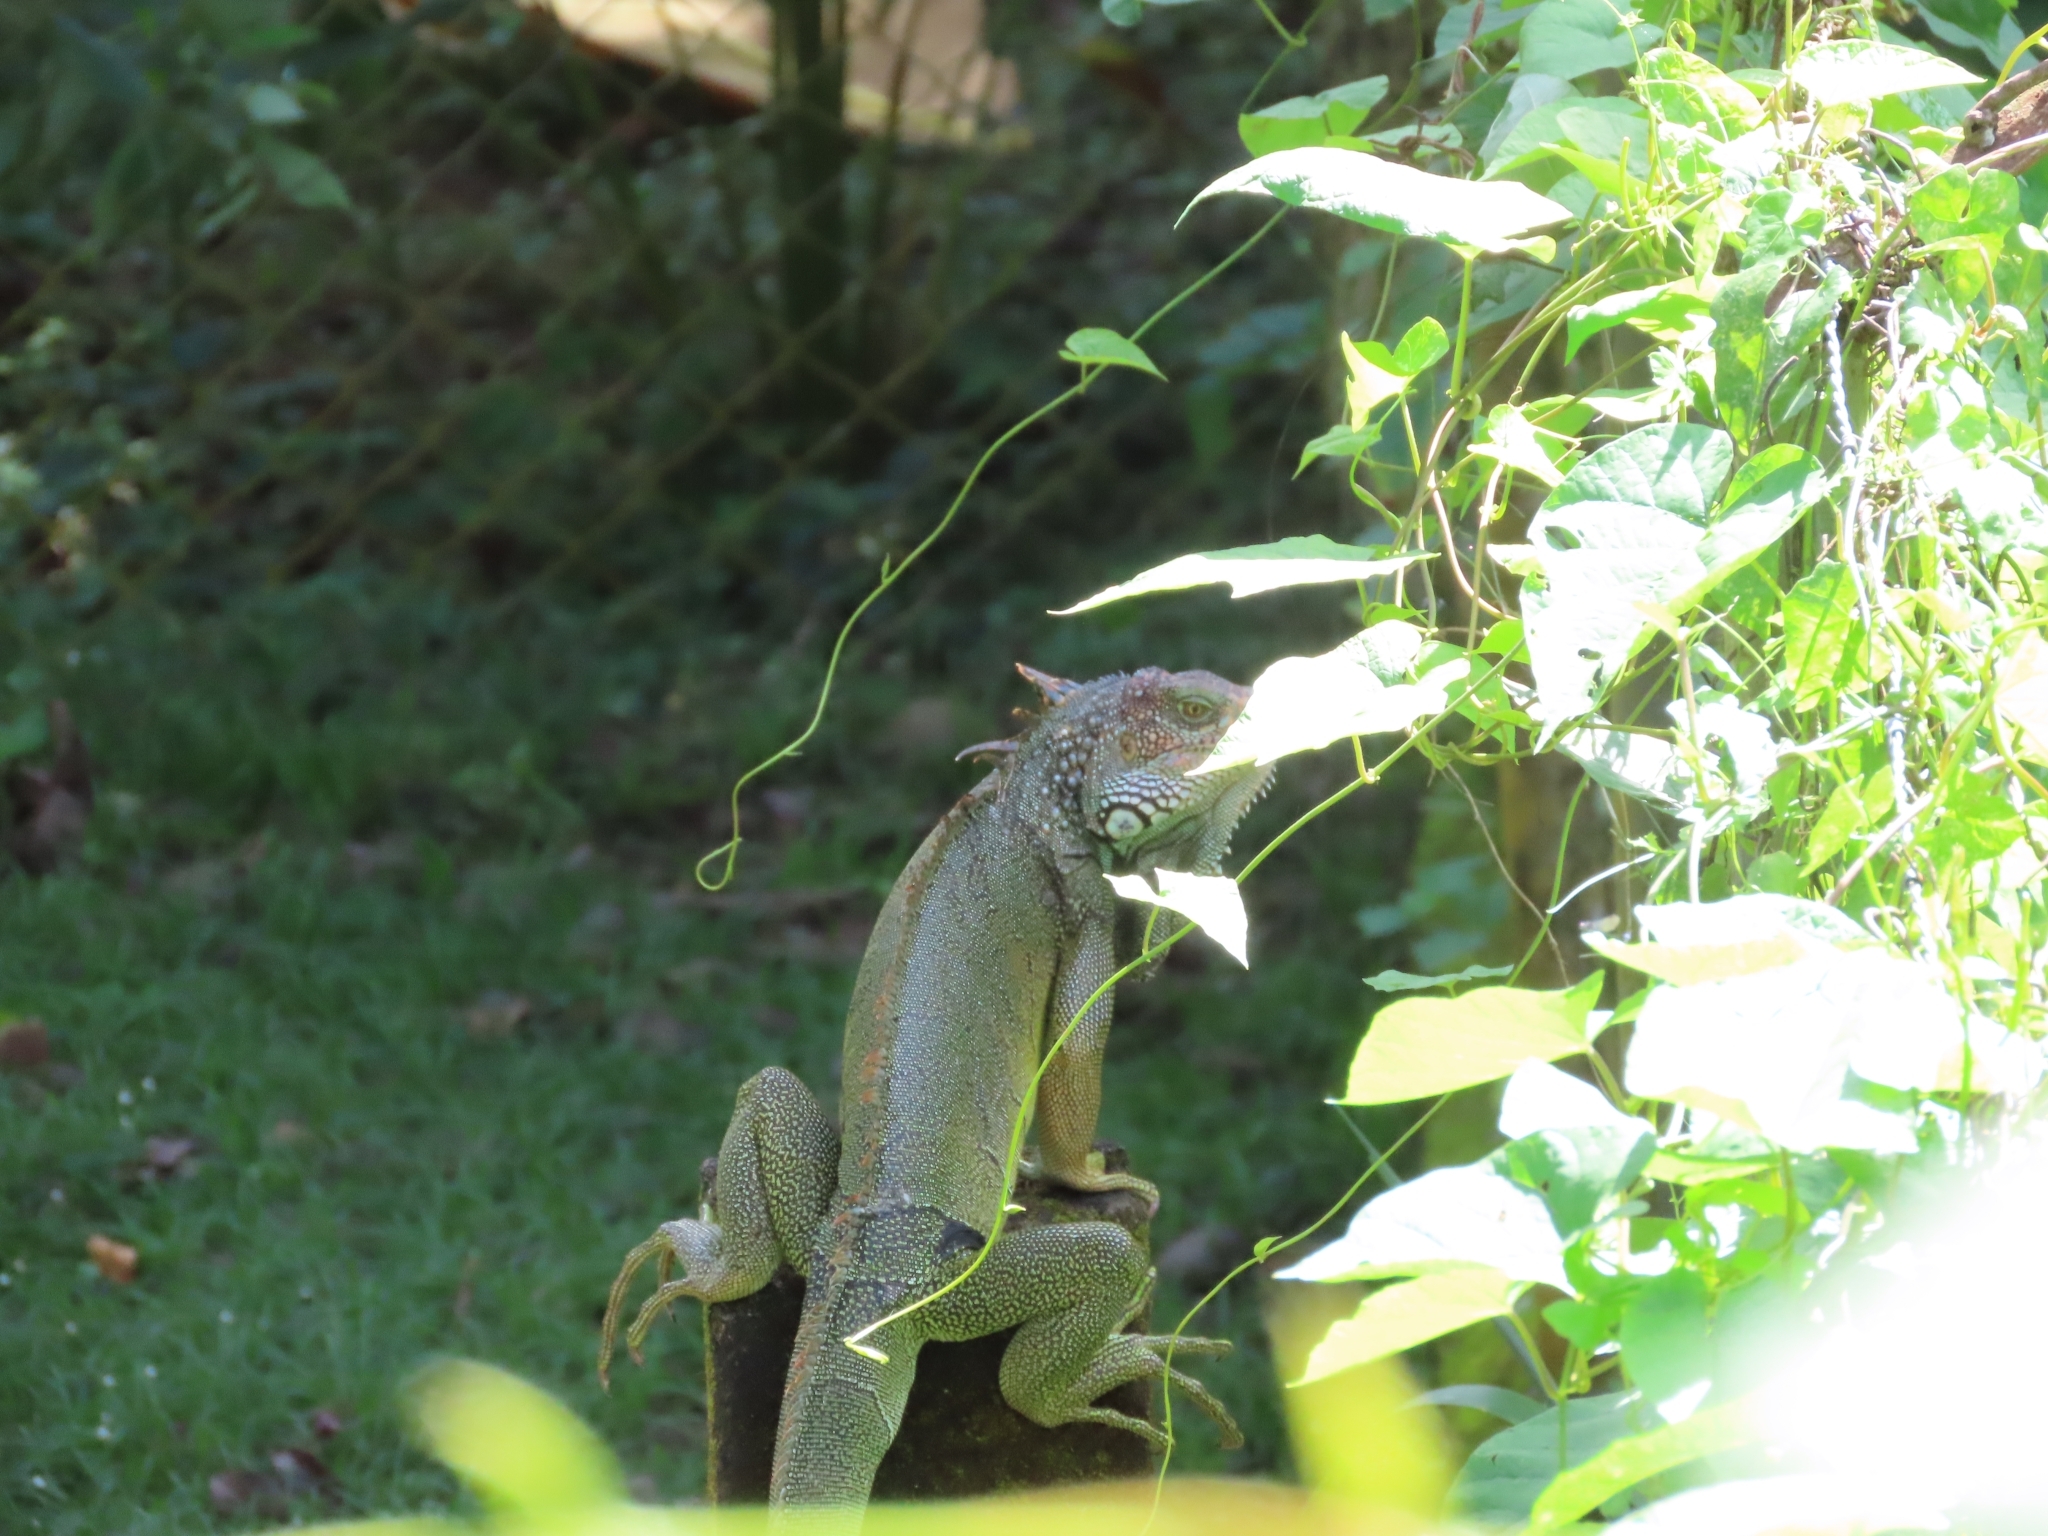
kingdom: Animalia
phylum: Chordata
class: Squamata
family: Iguanidae
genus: Iguana
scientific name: Iguana iguana
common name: Green iguana
